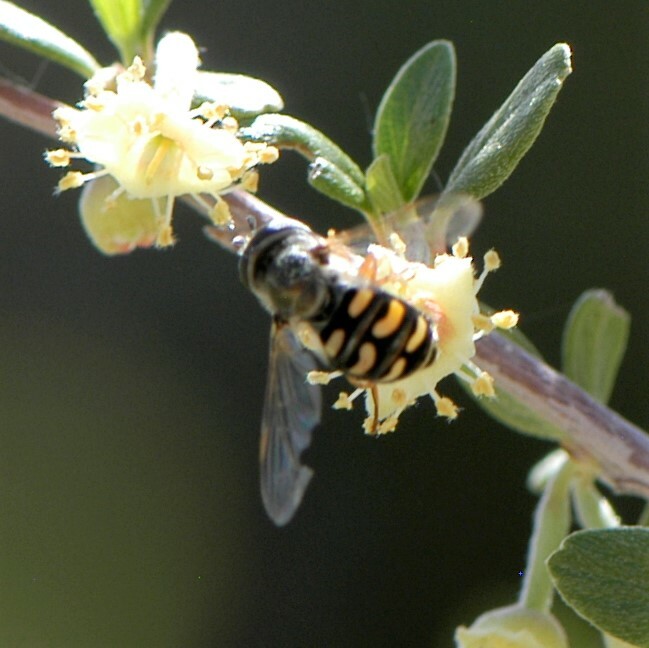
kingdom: Animalia
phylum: Arthropoda
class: Insecta
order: Diptera
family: Syrphidae
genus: Eupeodes
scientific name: Eupeodes volucris
